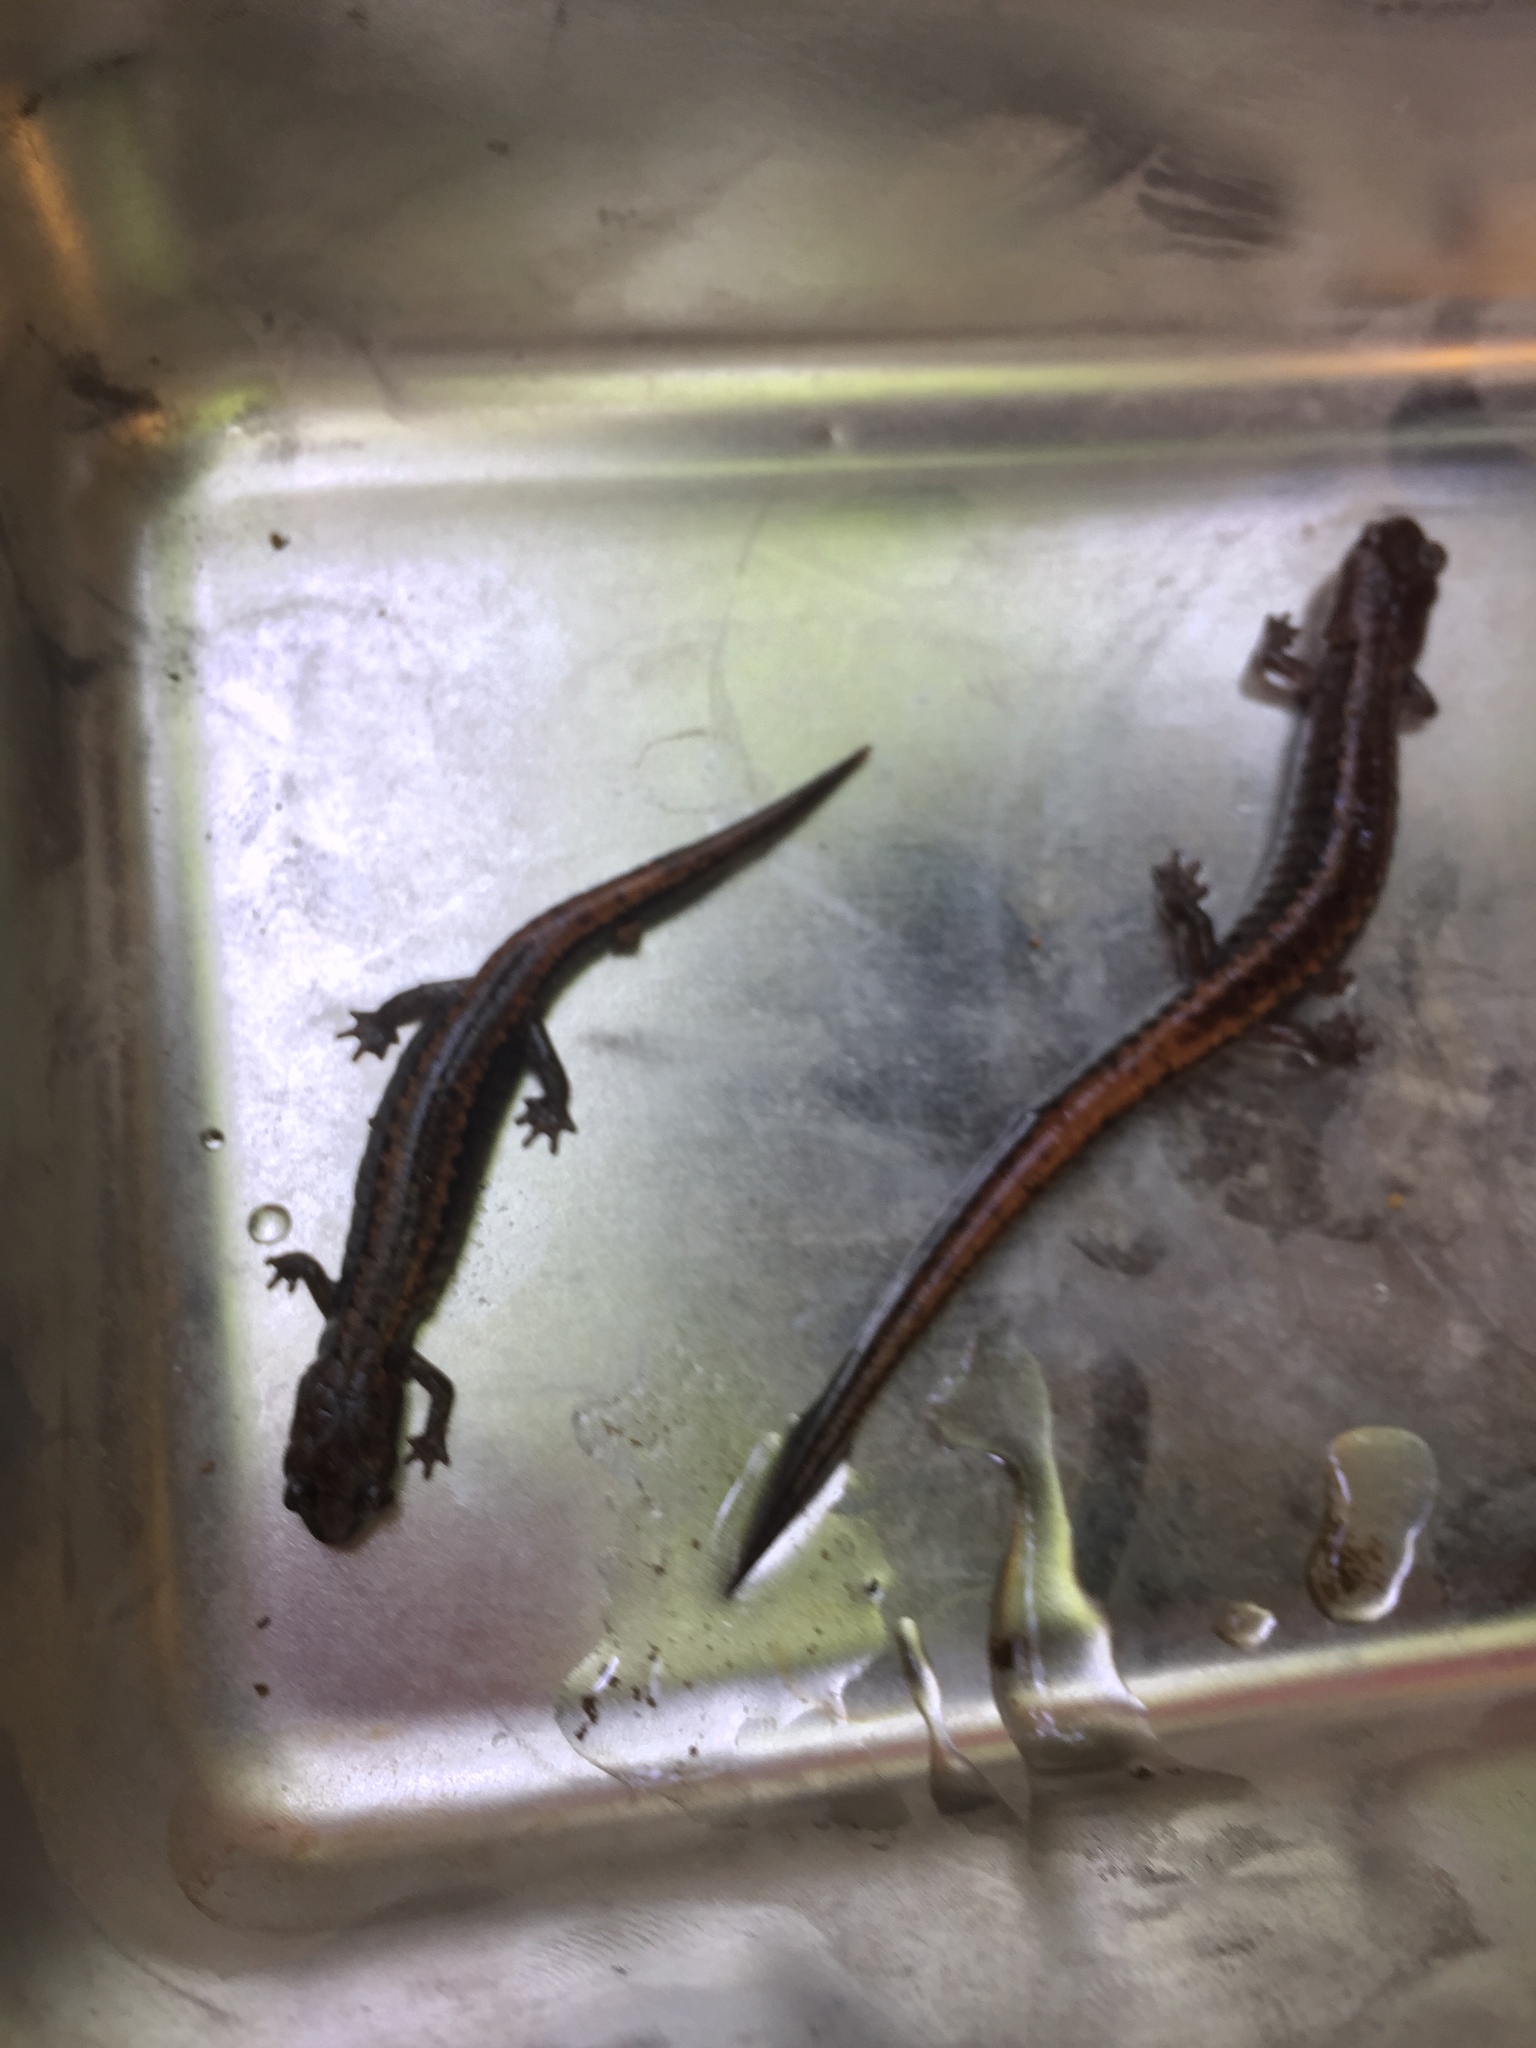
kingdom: Animalia
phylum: Chordata
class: Amphibia
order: Caudata
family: Plethodontidae
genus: Karsenia
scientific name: Karsenia koreana
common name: Korean crevice salamander
